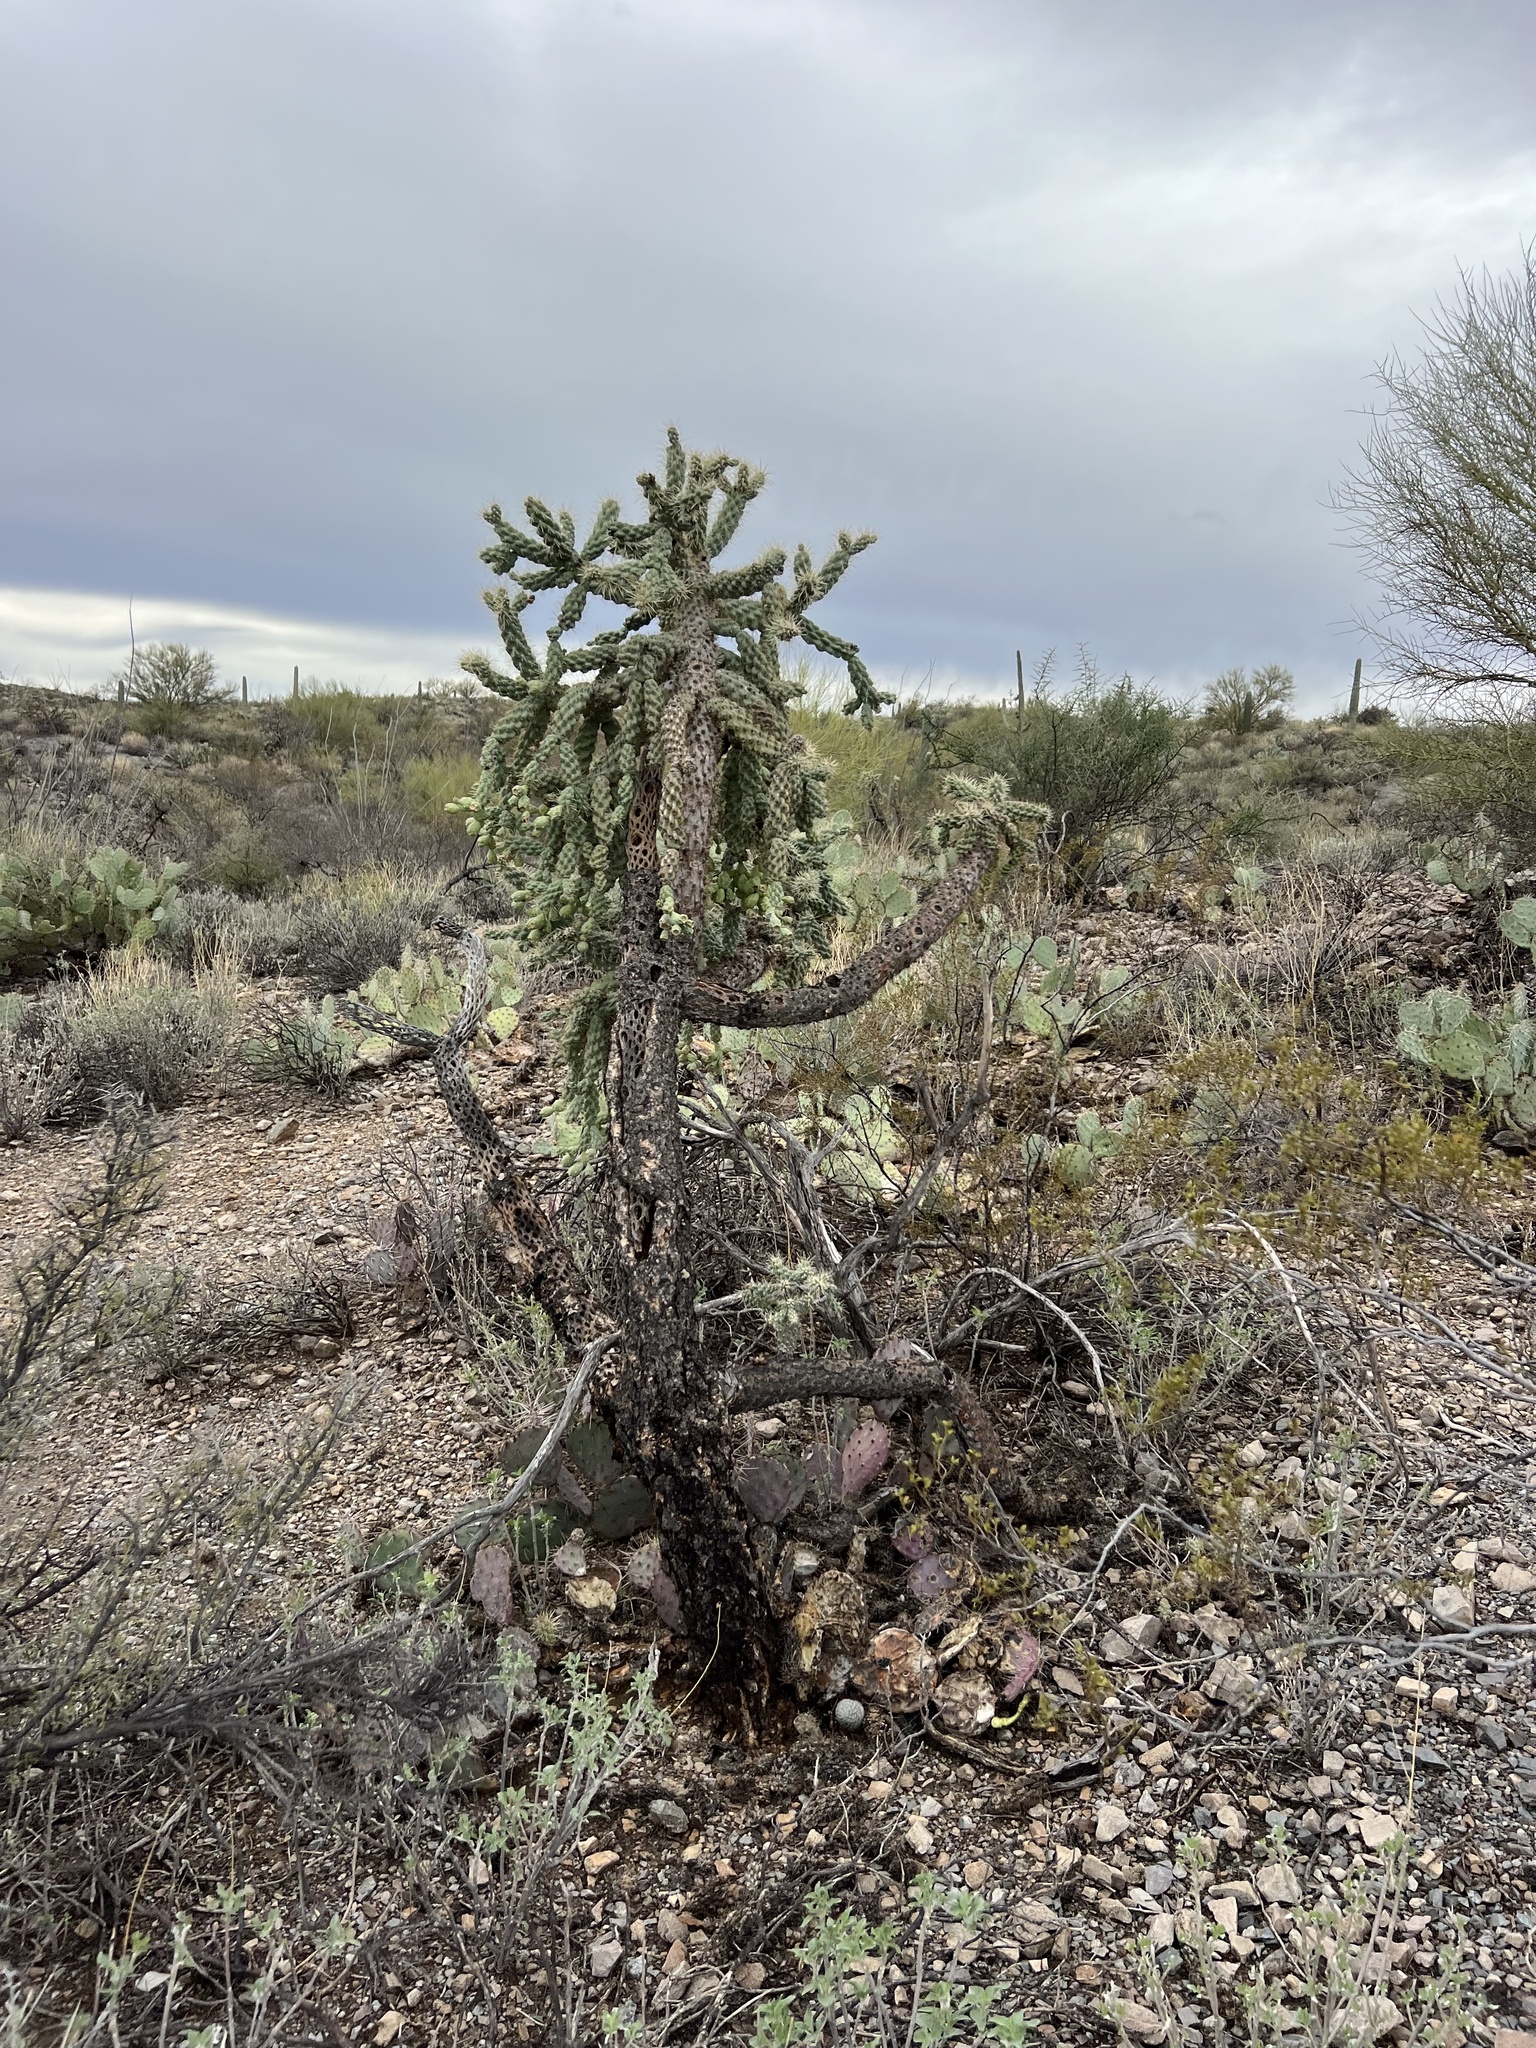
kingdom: Plantae
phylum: Tracheophyta
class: Magnoliopsida
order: Caryophyllales
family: Cactaceae
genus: Cylindropuntia
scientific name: Cylindropuntia fulgida
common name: Jumping cholla
